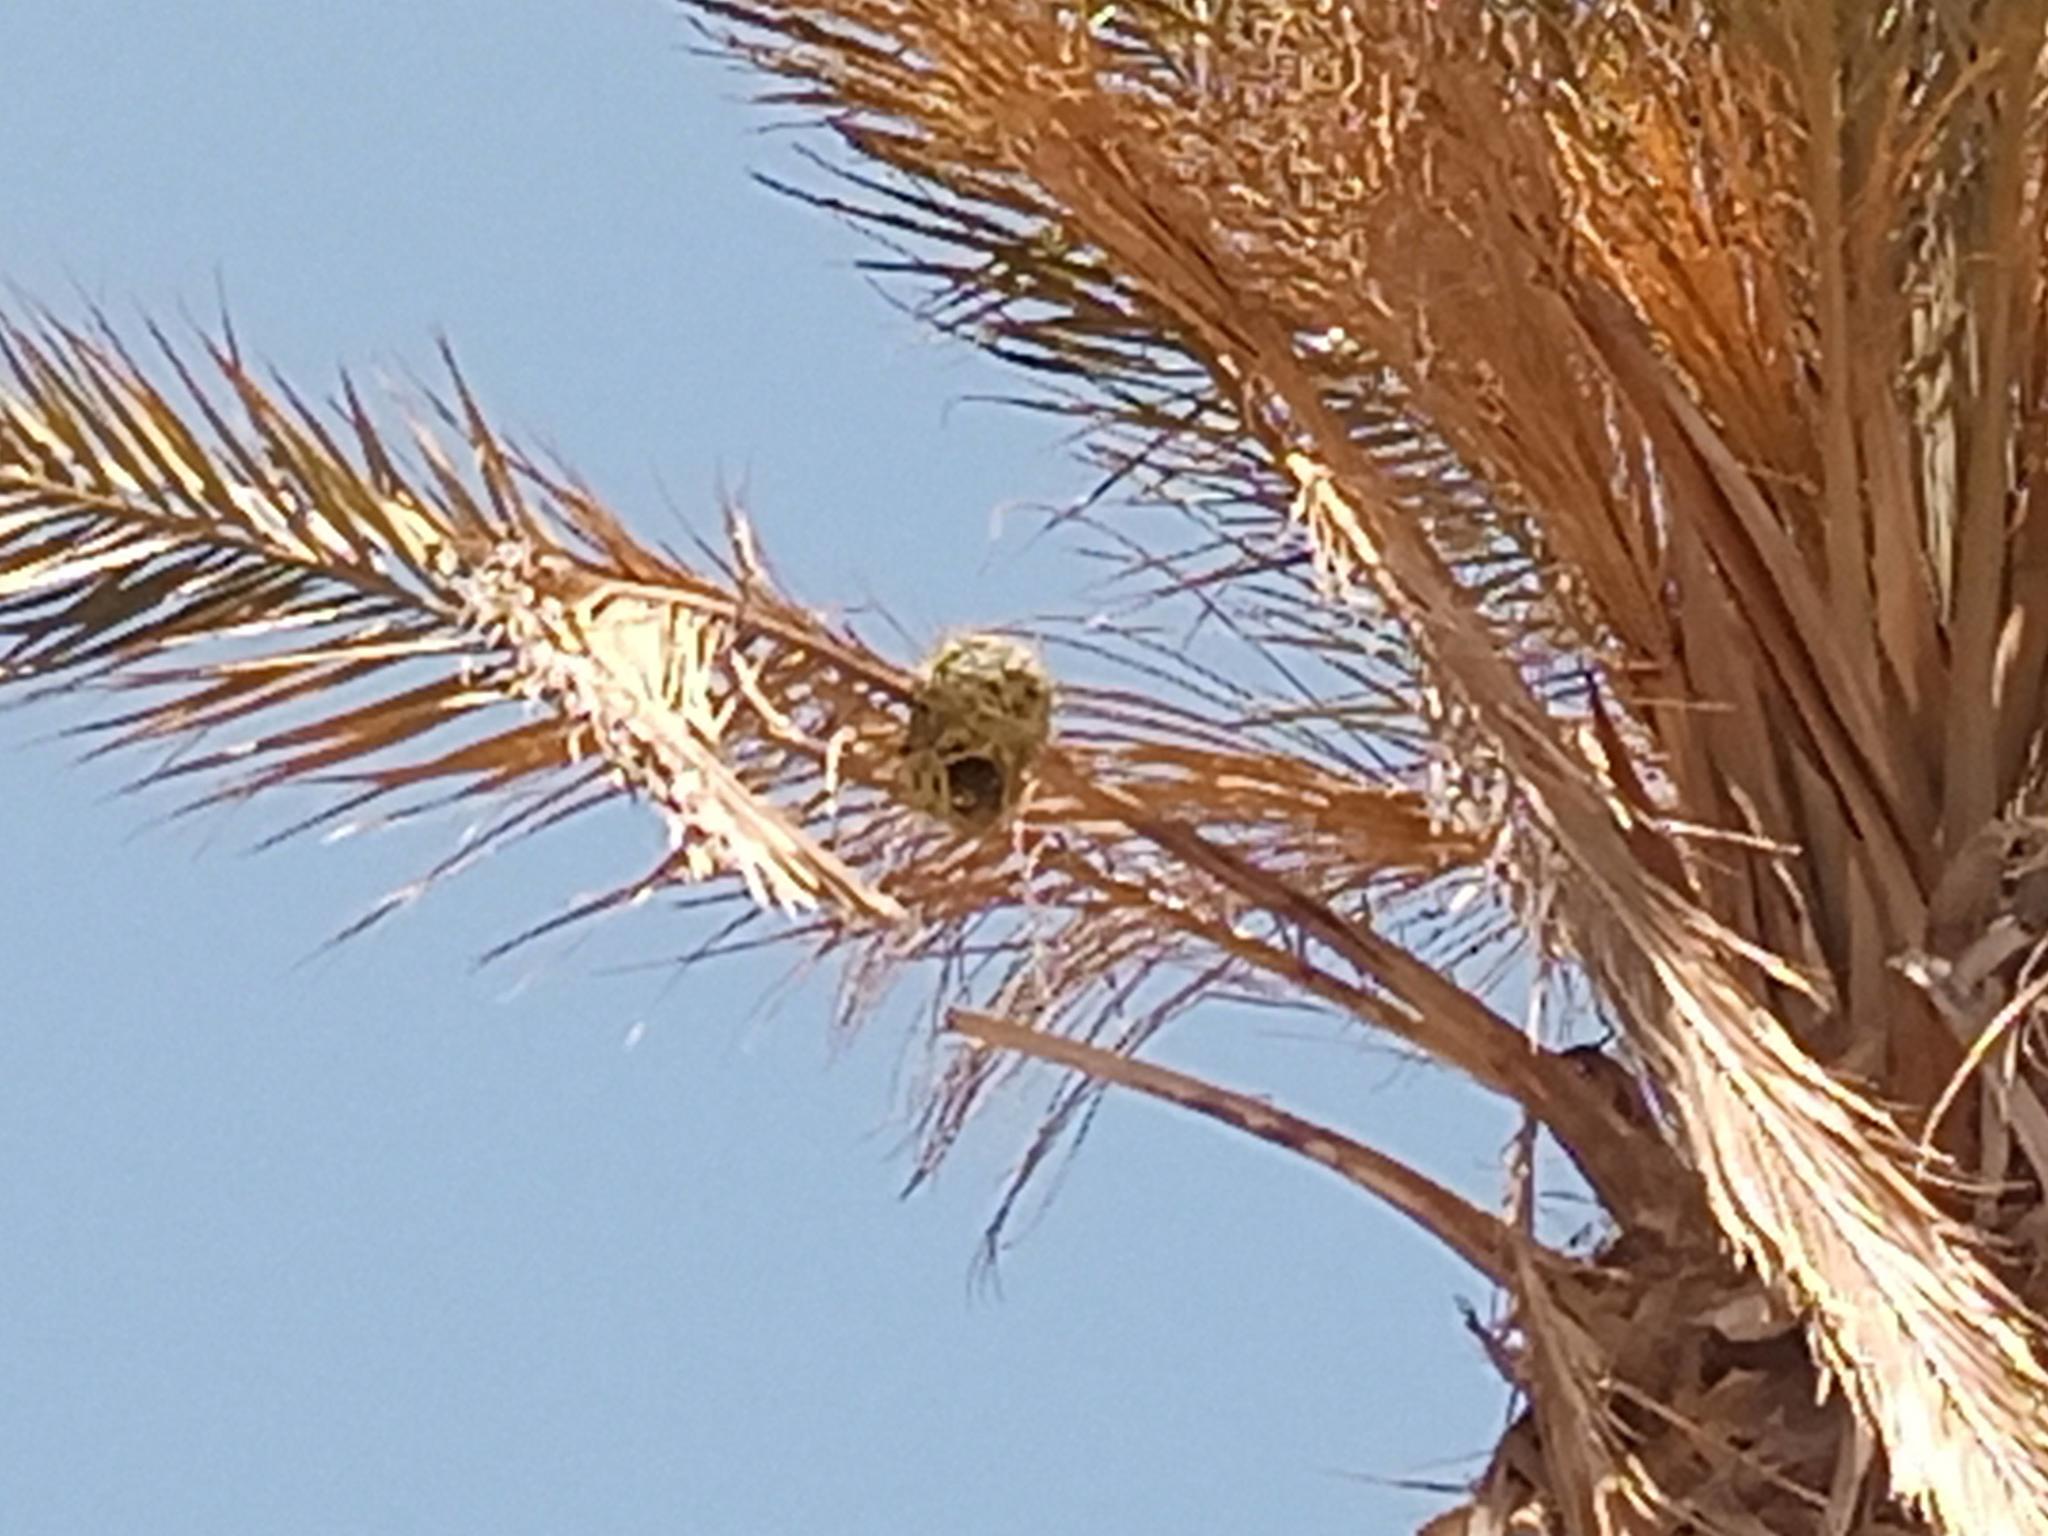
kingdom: Animalia
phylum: Chordata
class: Aves
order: Passeriformes
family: Ploceidae
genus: Ploceus
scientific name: Ploceus cucullatus
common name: Village weaver
